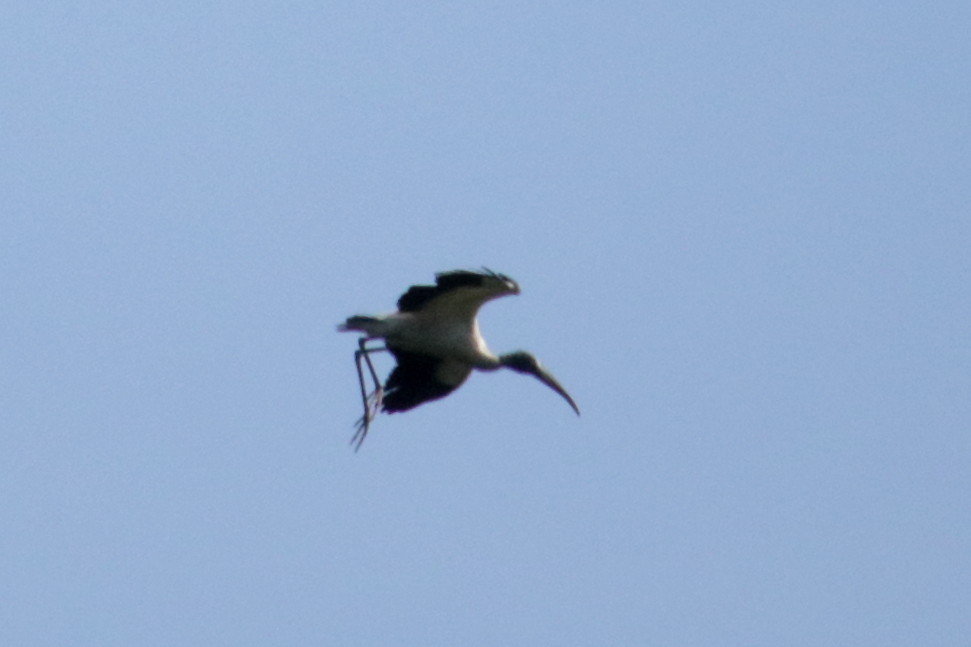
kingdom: Animalia
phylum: Chordata
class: Aves
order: Ciconiiformes
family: Ciconiidae
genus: Mycteria
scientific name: Mycteria americana
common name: Wood stork
